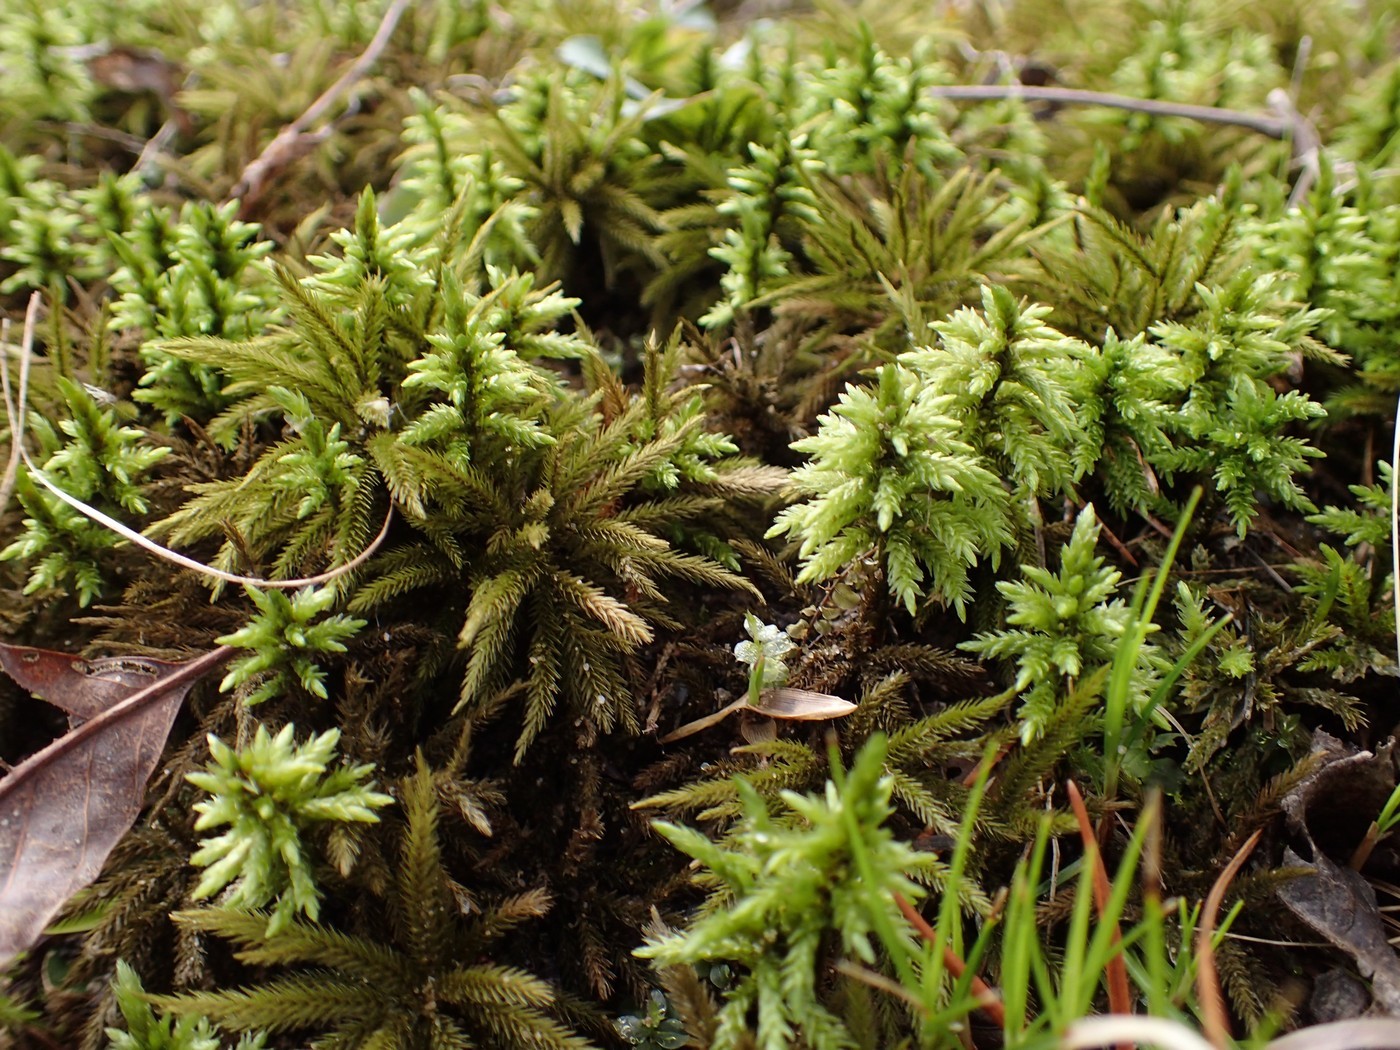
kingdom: Plantae
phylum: Bryophyta
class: Bryopsida
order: Hypnales
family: Climaciaceae
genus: Climacium
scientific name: Climacium americanum
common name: American tree moss
